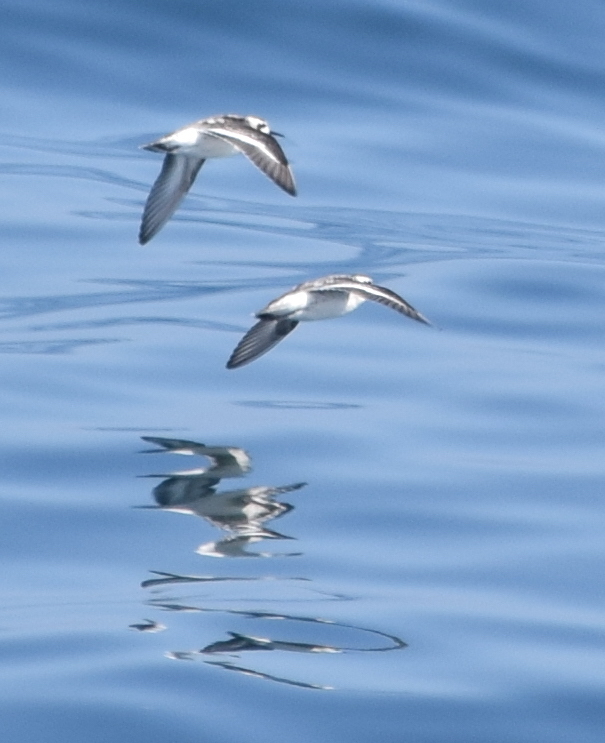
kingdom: Animalia
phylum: Chordata
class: Aves
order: Charadriiformes
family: Scolopacidae
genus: Phalaropus
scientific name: Phalaropus lobatus
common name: Red-necked phalarope
